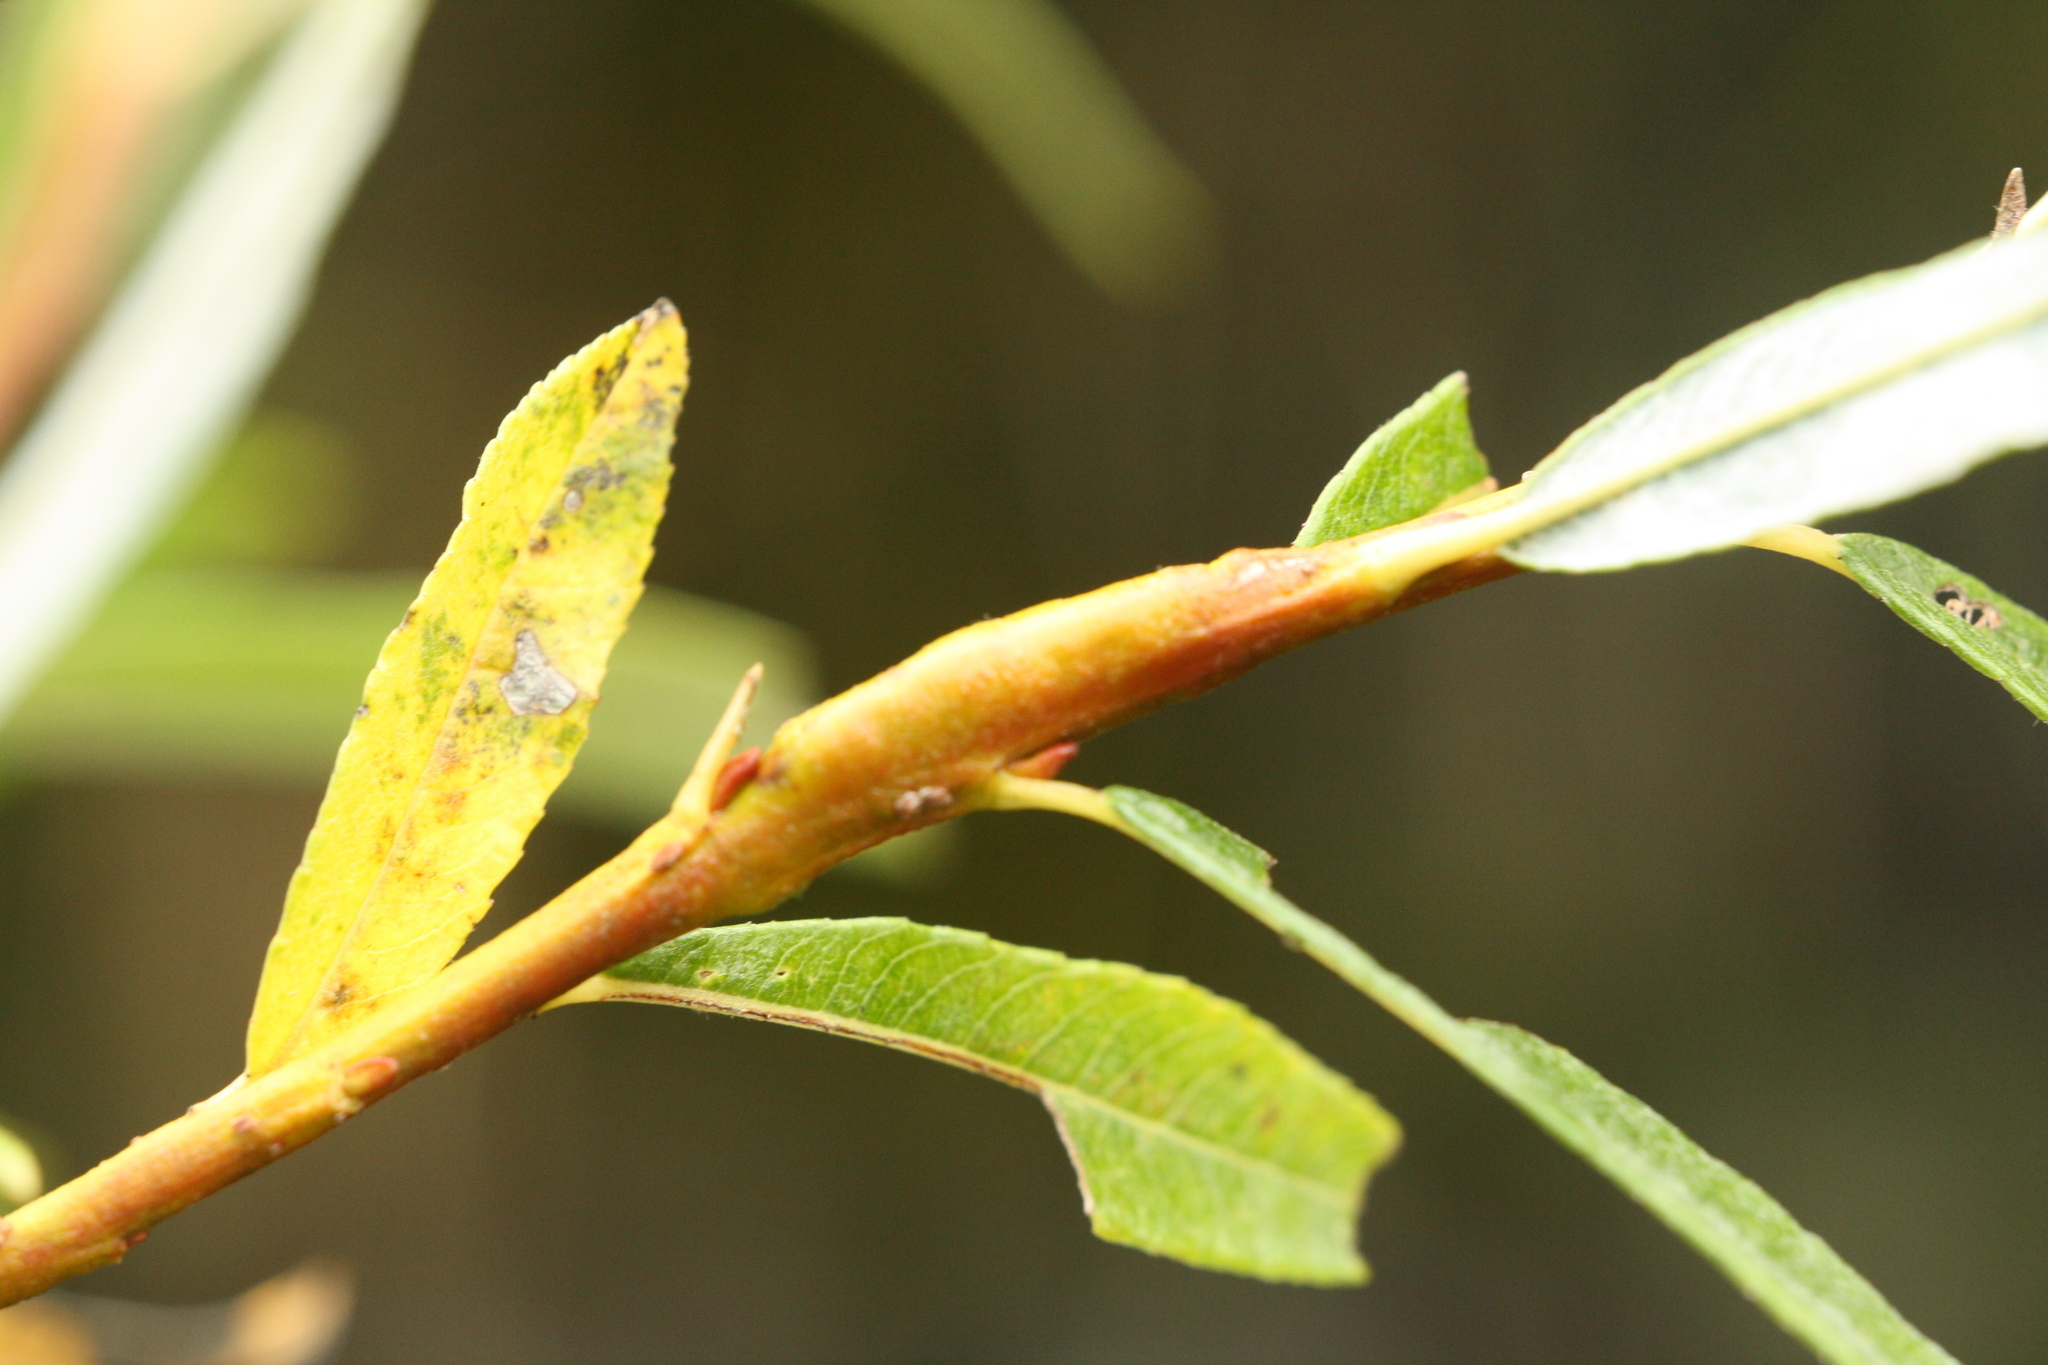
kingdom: Animalia
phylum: Arthropoda
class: Insecta
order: Hymenoptera
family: Tenthredinidae
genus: Euura
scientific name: Euura elaeagnos
